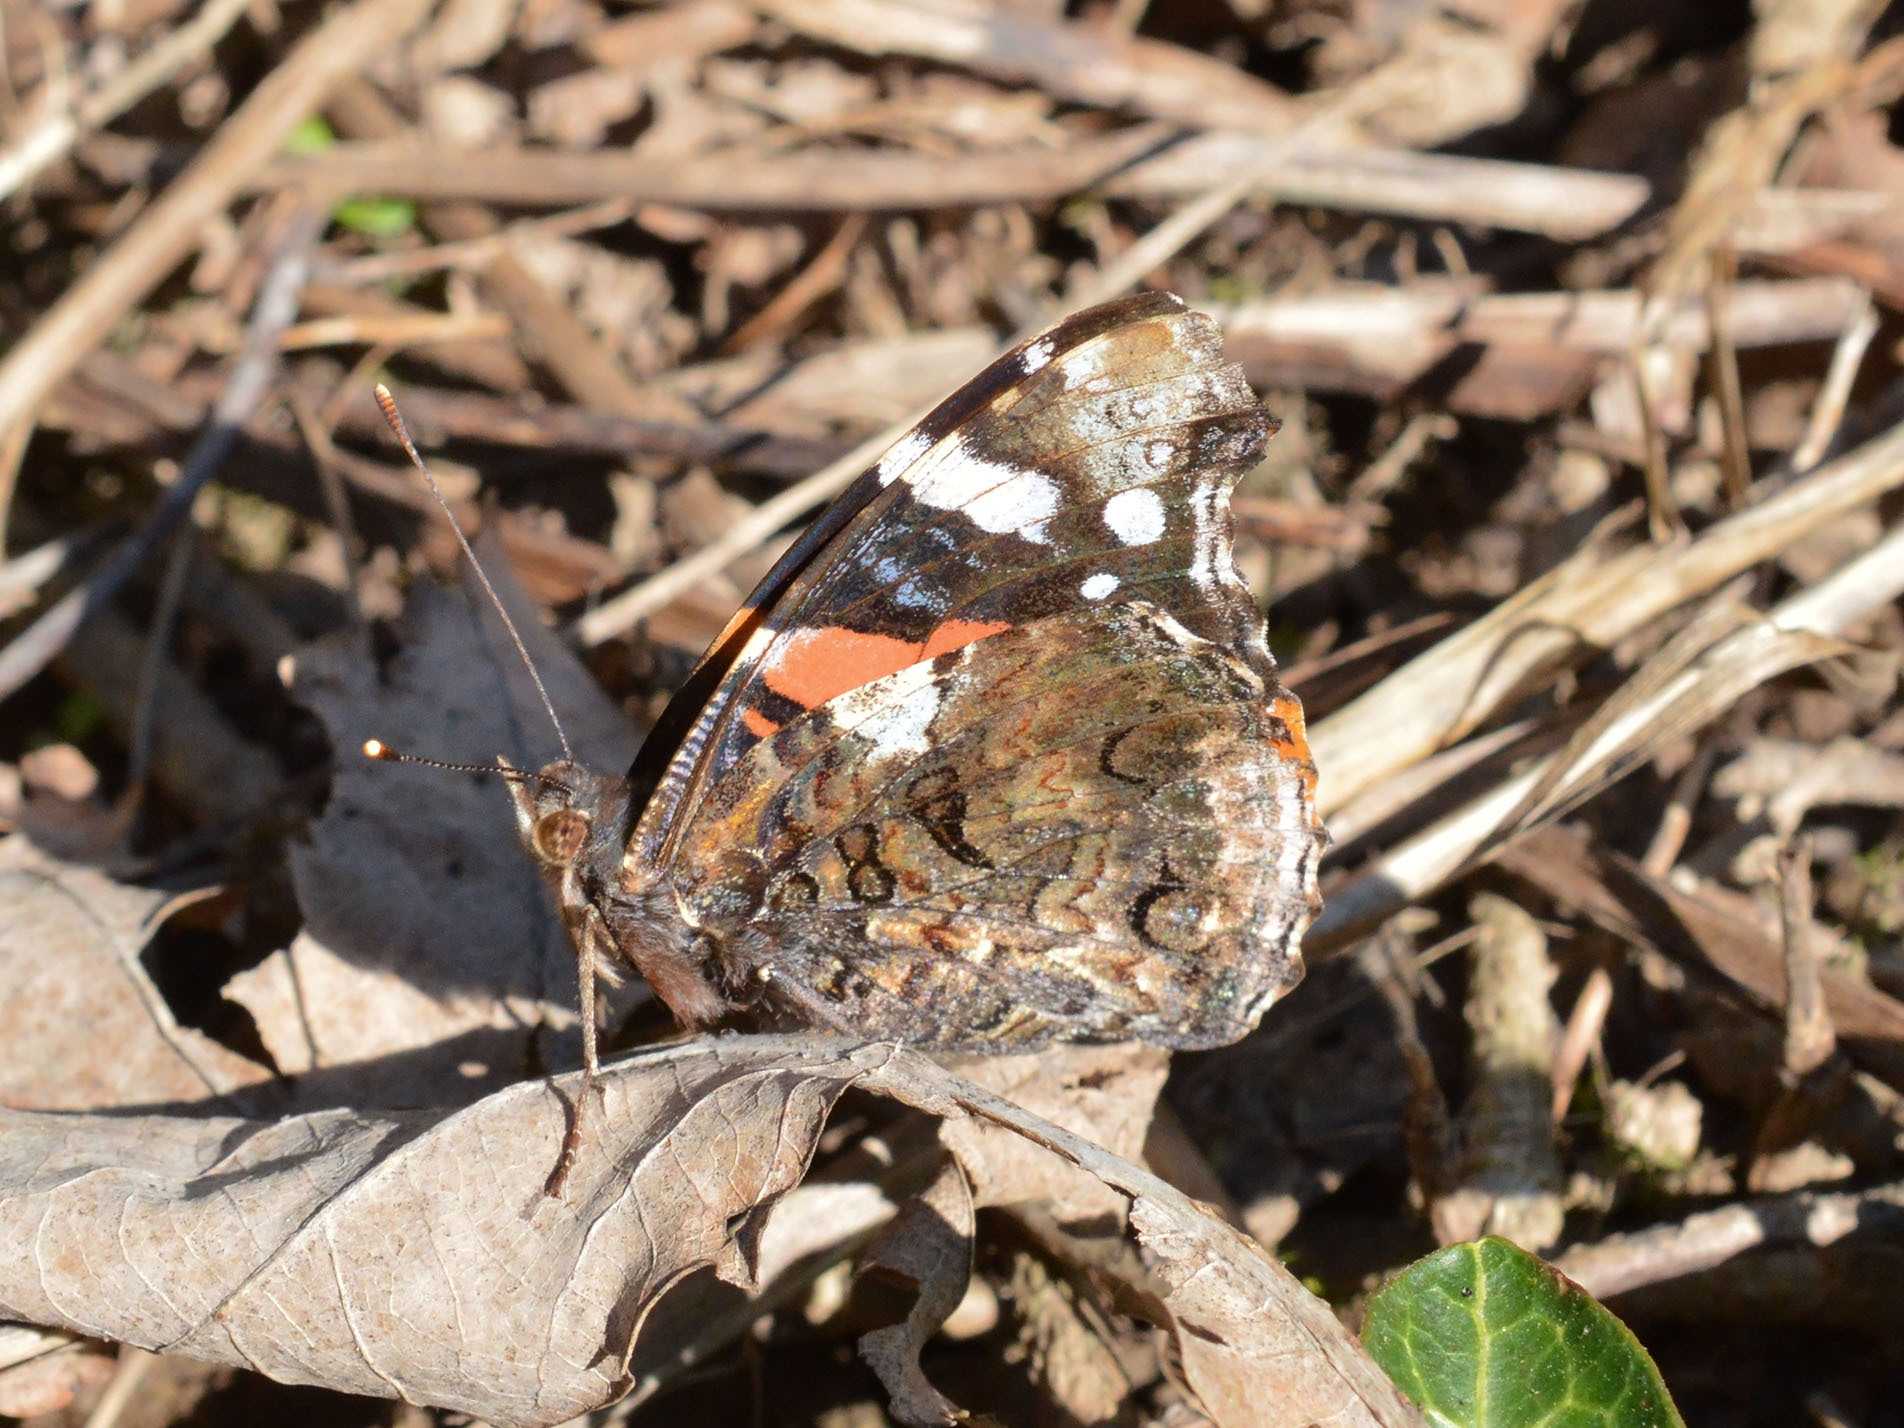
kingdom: Animalia
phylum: Arthropoda
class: Insecta
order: Lepidoptera
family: Nymphalidae
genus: Vanessa
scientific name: Vanessa atalanta
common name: Red admiral
